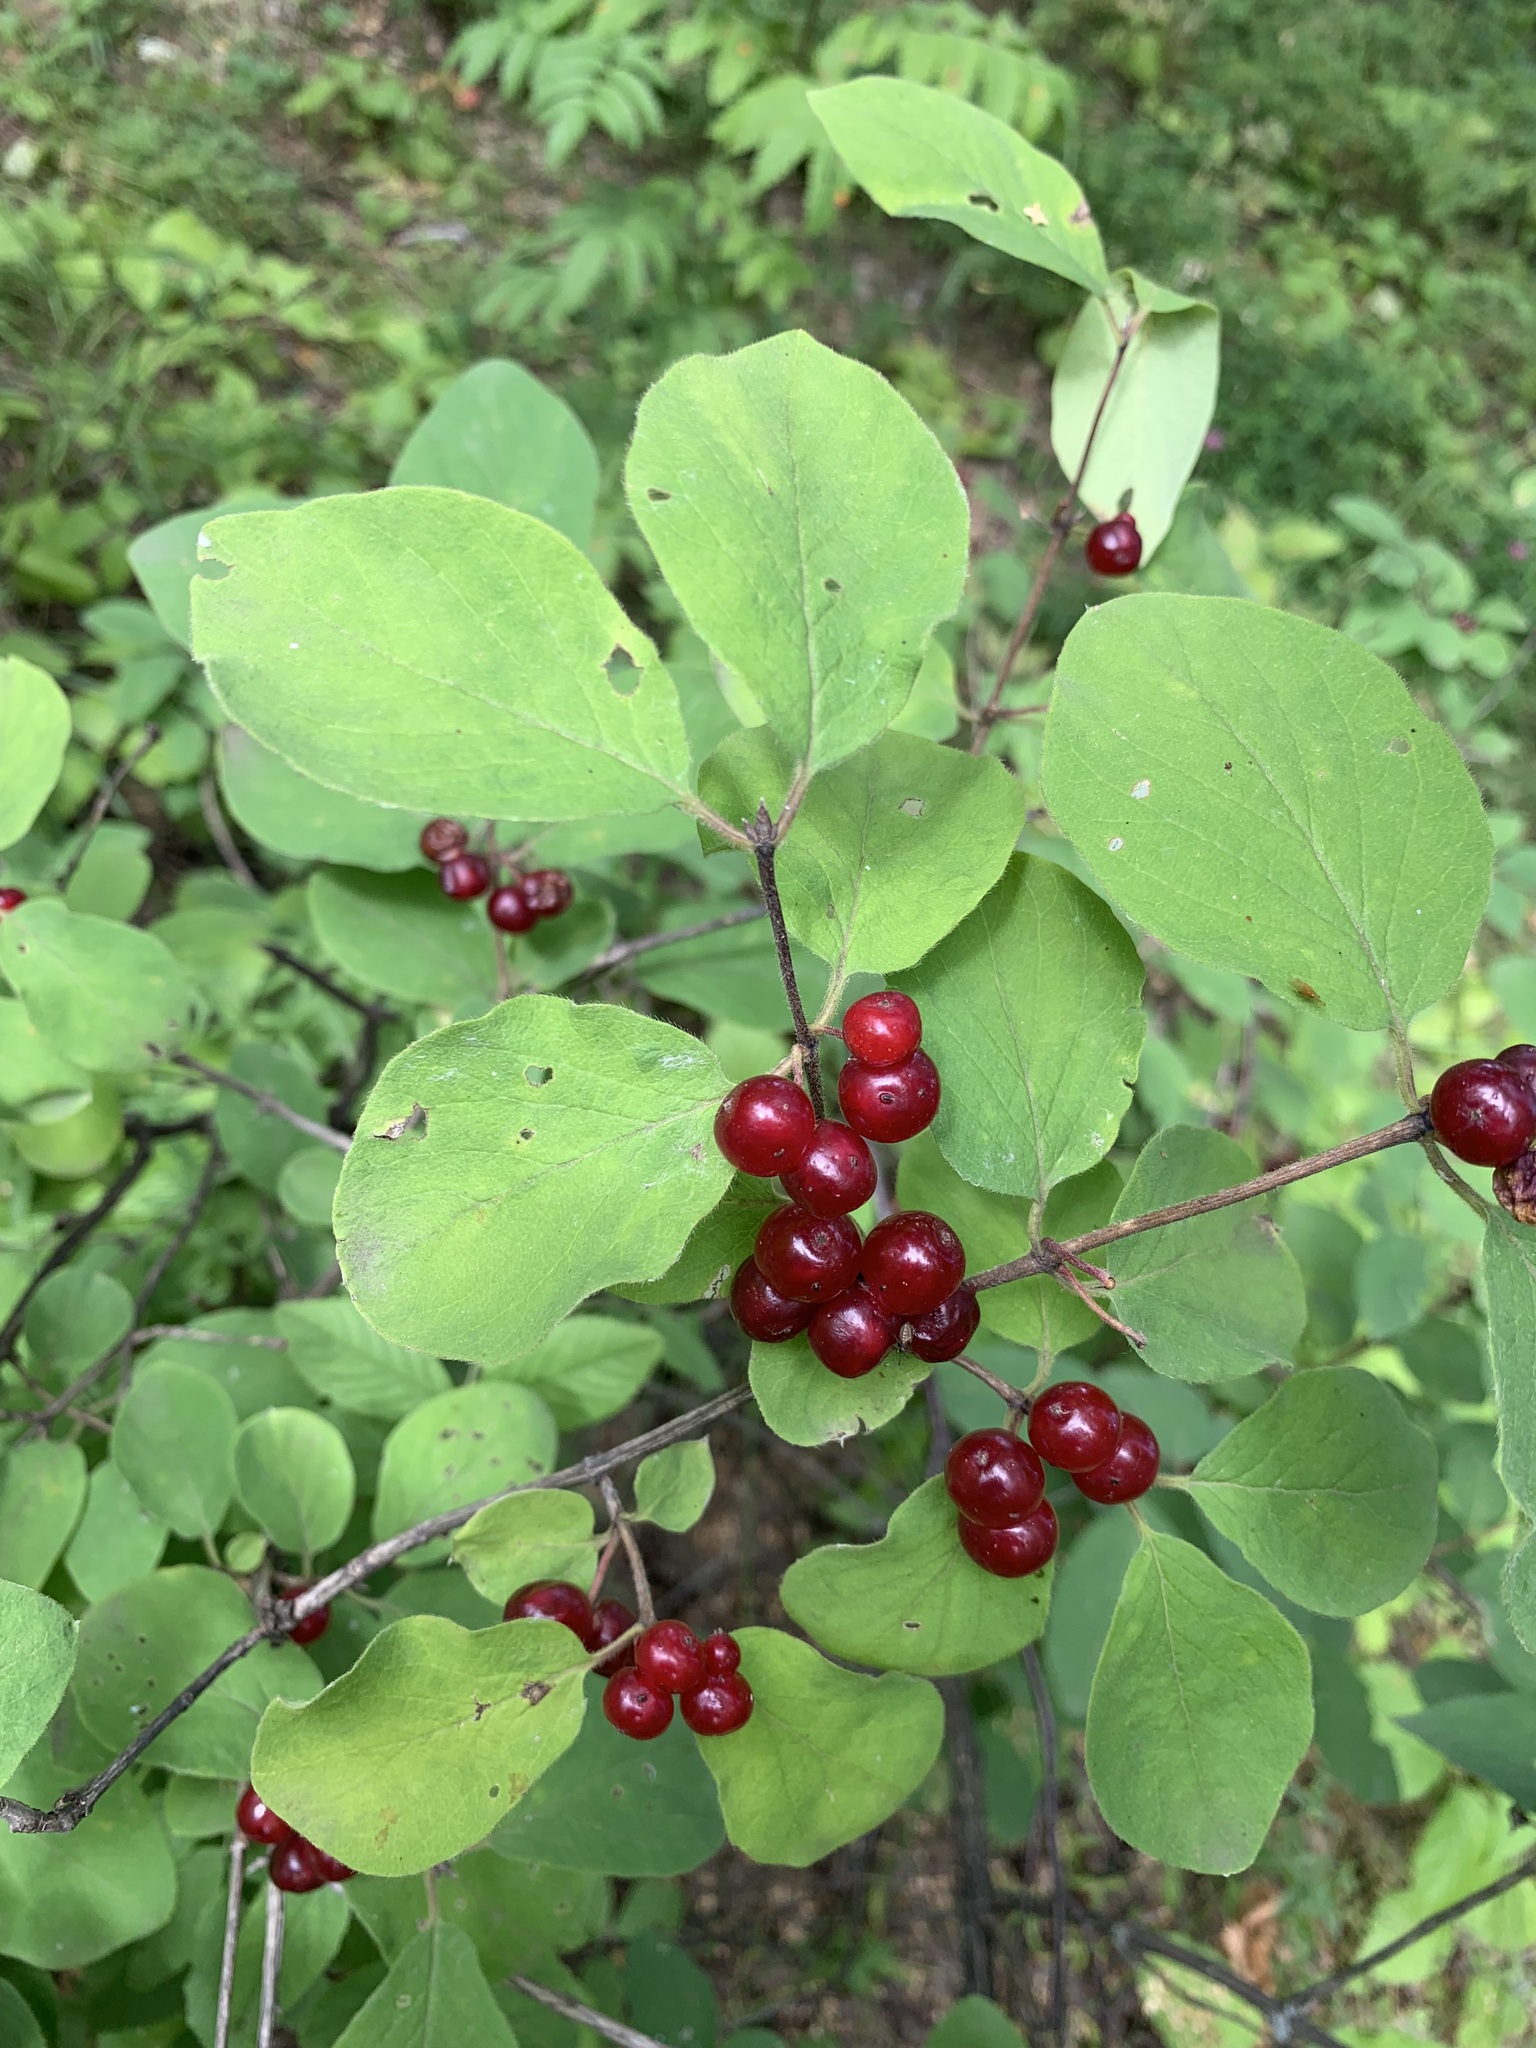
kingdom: Plantae
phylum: Tracheophyta
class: Magnoliopsida
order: Dipsacales
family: Caprifoliaceae
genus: Lonicera
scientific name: Lonicera xylosteum
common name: Fly honeysuckle
